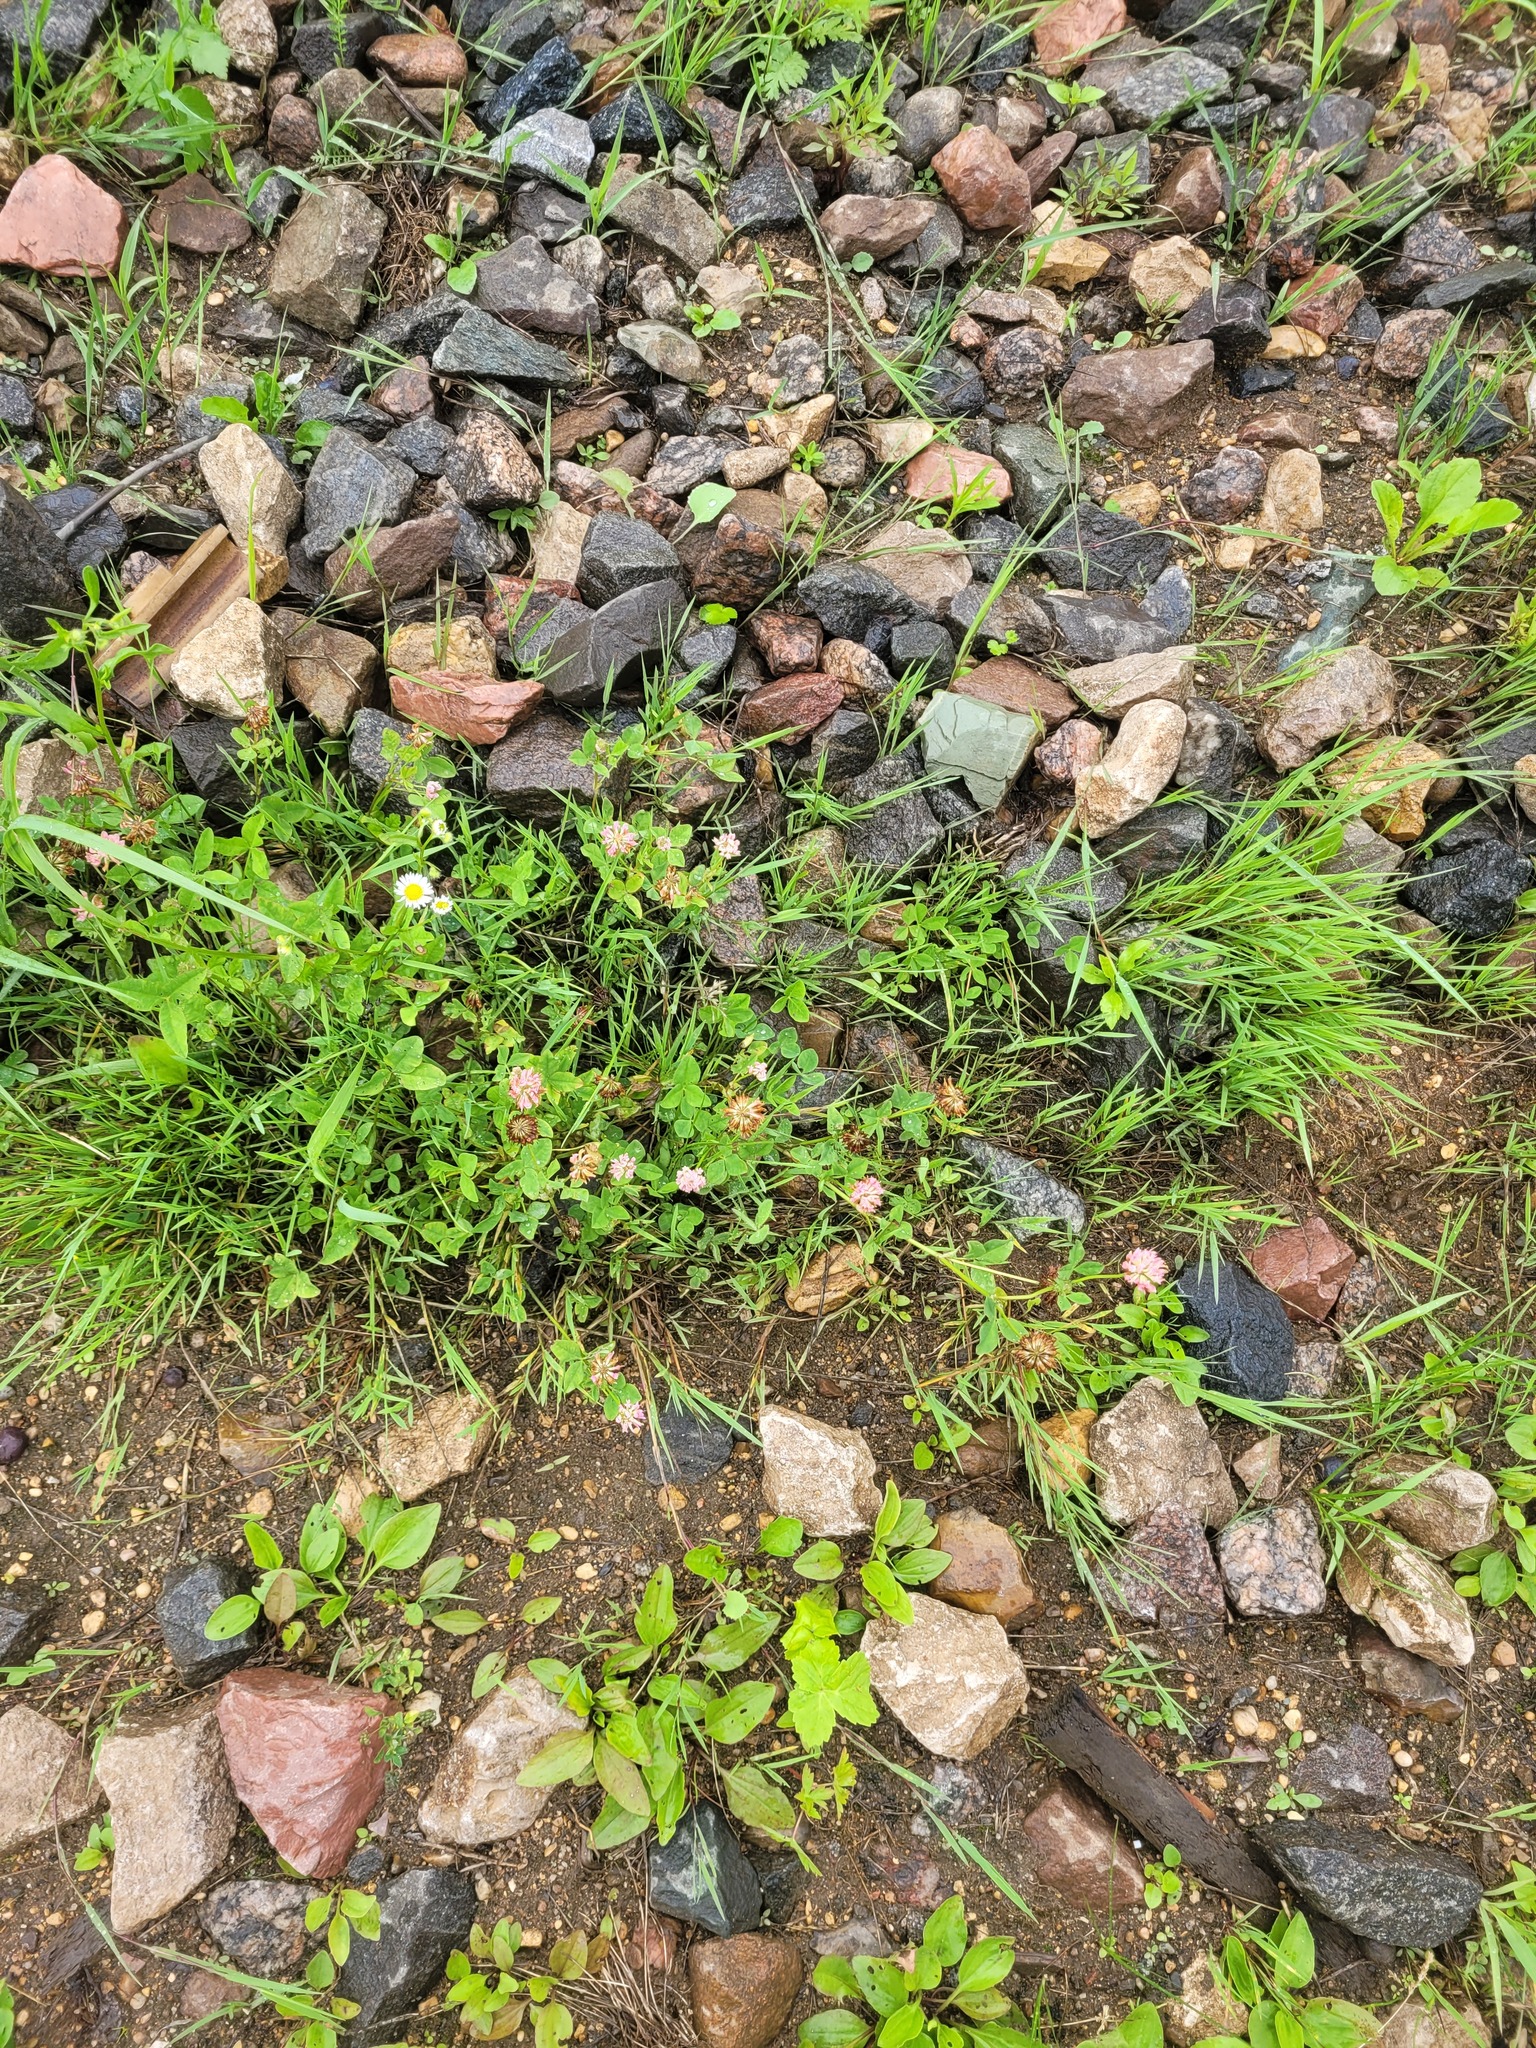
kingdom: Plantae
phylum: Tracheophyta
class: Magnoliopsida
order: Fabales
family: Fabaceae
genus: Trifolium
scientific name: Trifolium hybridum
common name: Alsike clover
